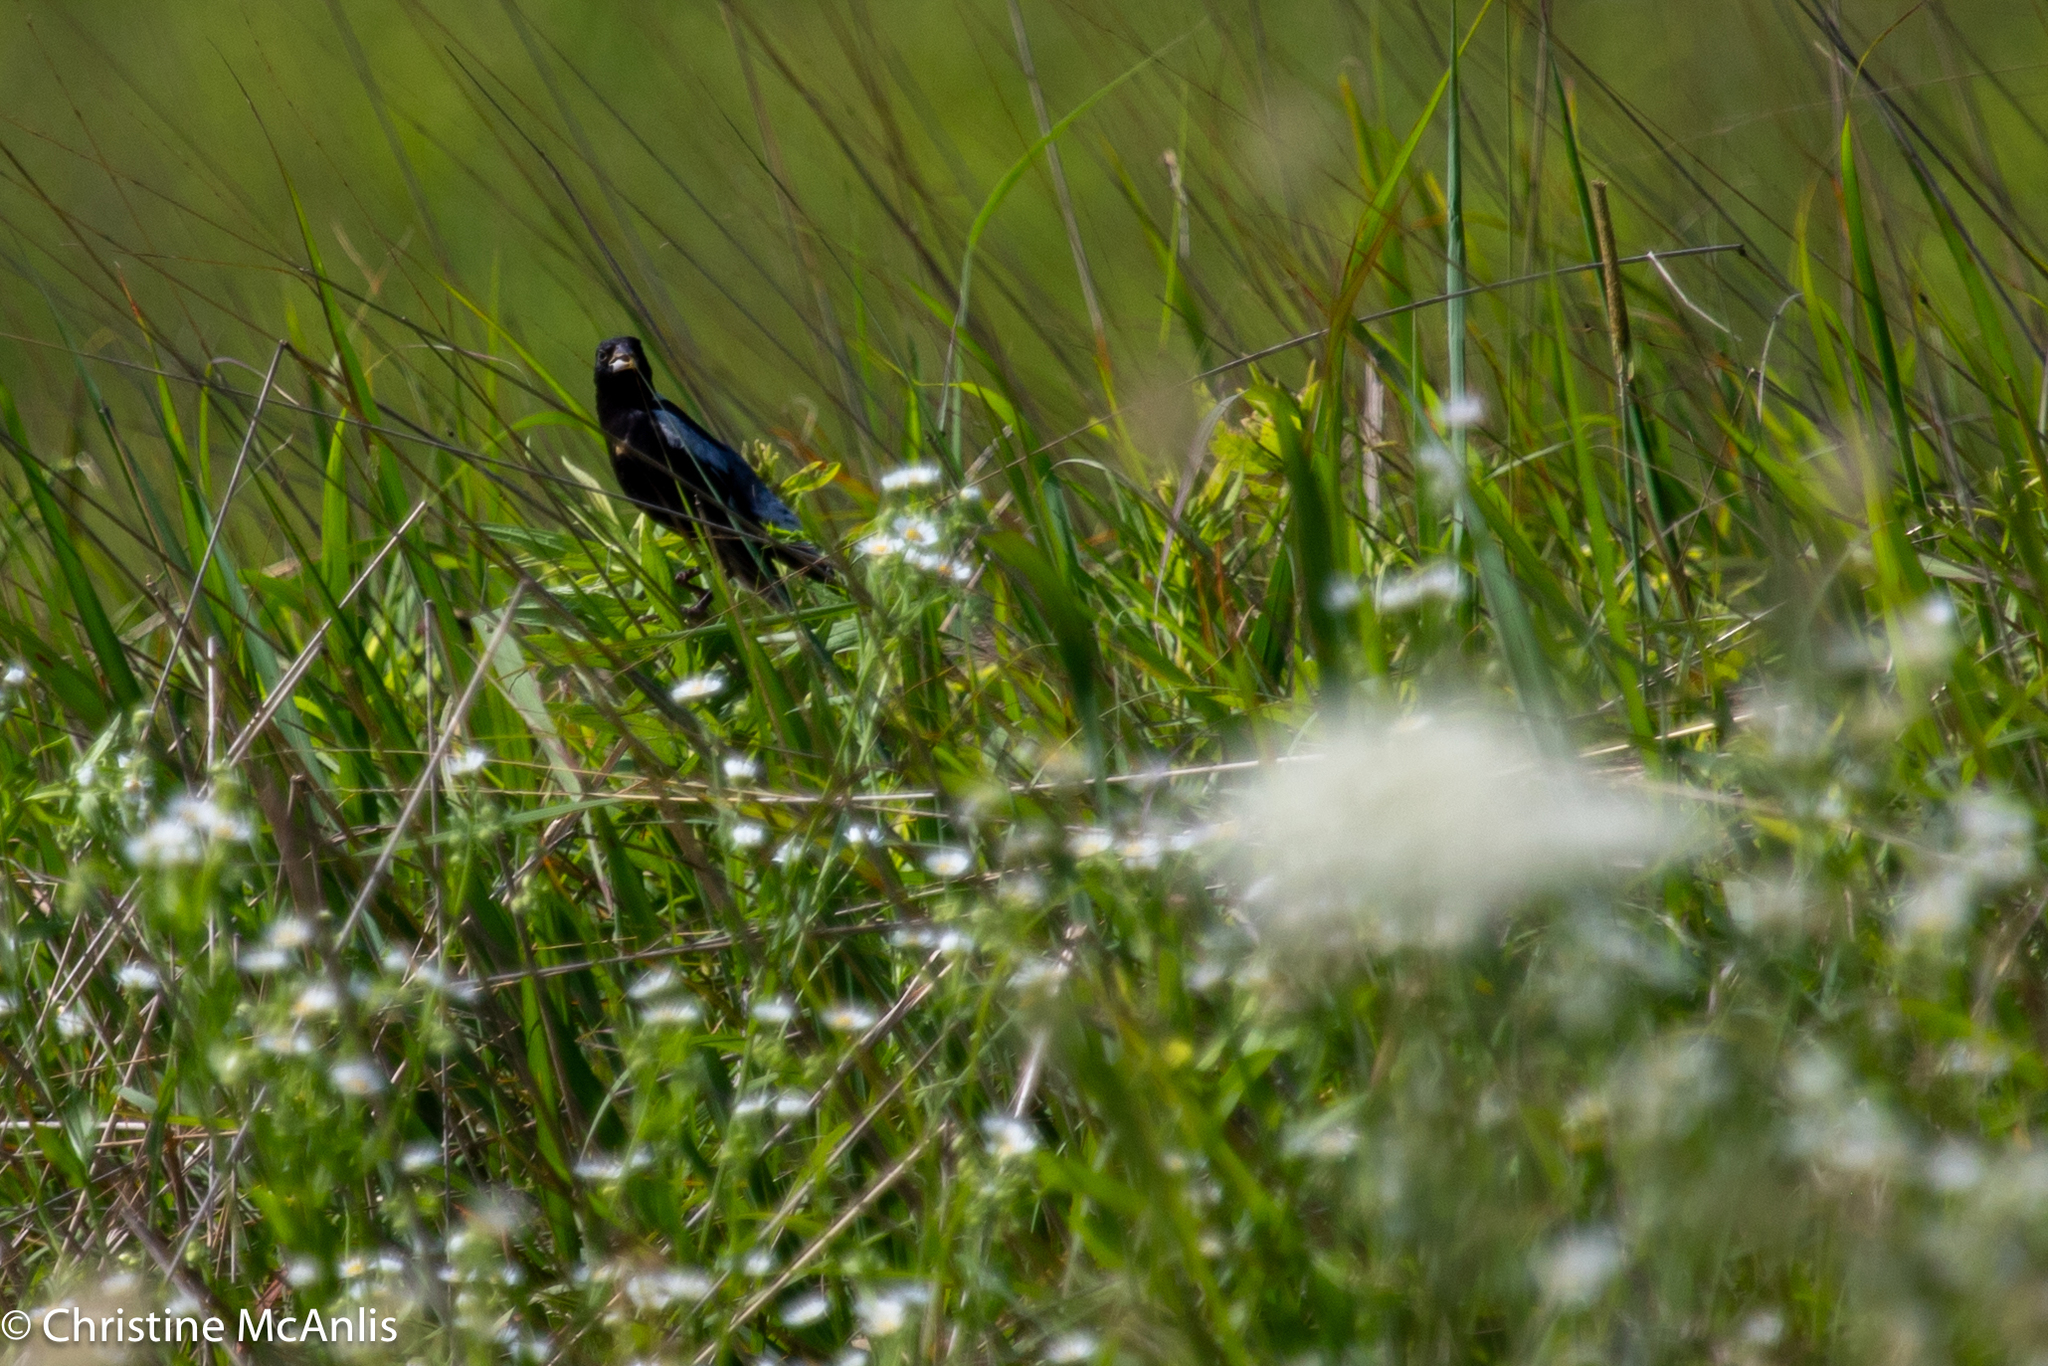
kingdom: Animalia
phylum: Chordata
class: Aves
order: Passeriformes
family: Icteridae
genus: Dolichonyx
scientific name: Dolichonyx oryzivorus
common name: Bobolink
